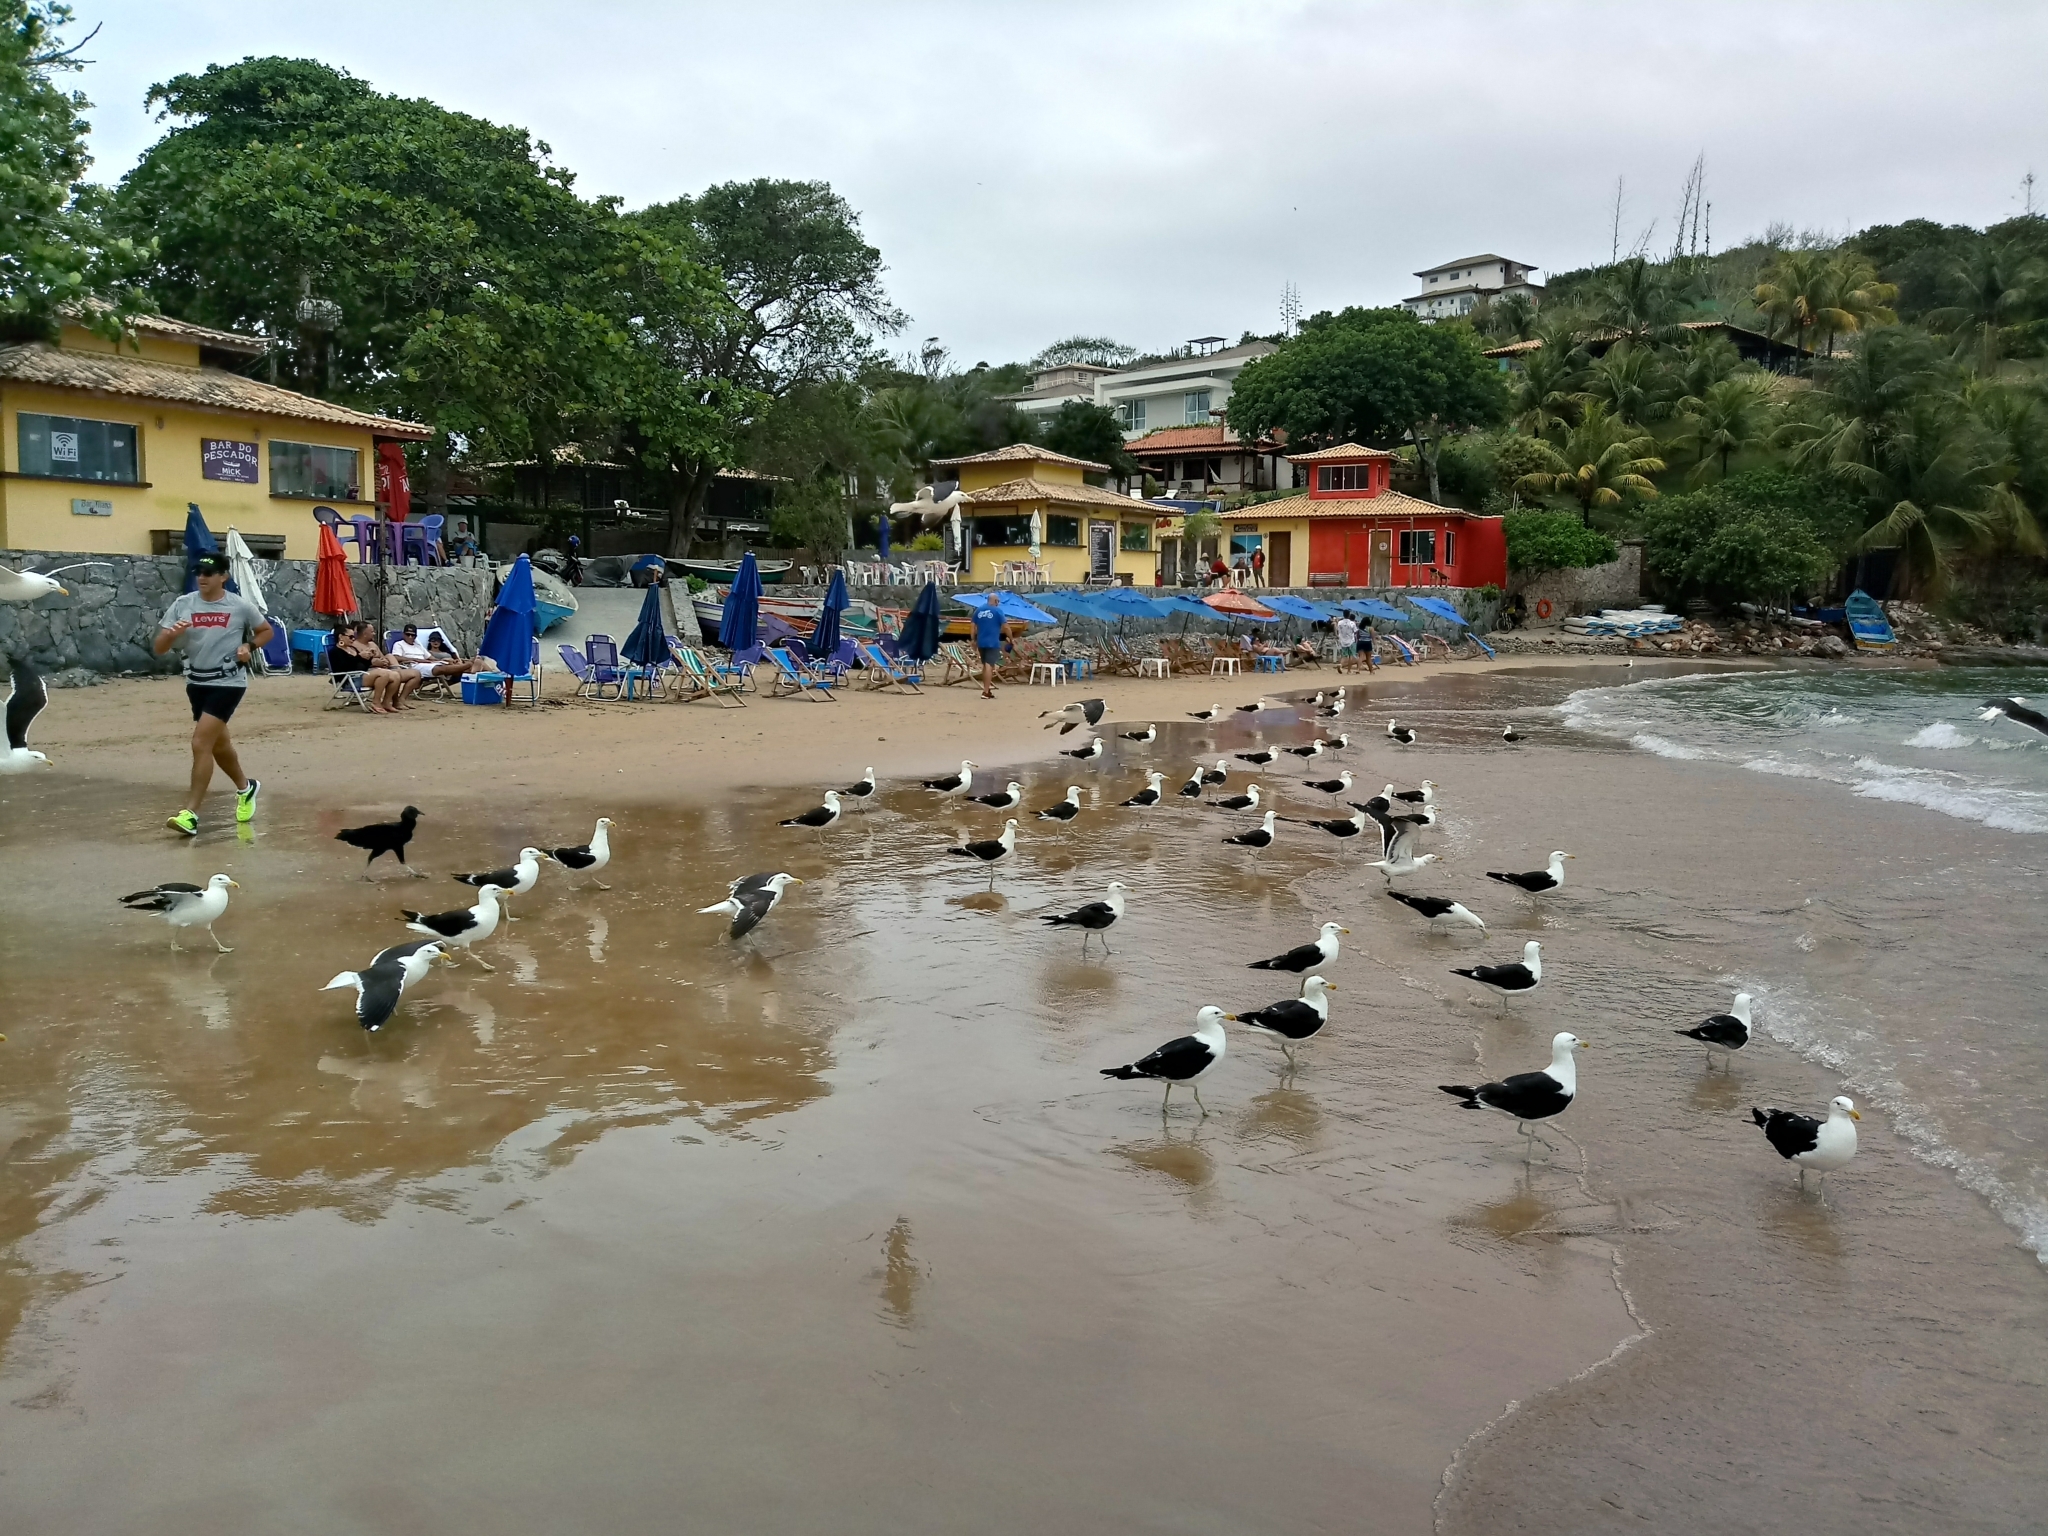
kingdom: Animalia
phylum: Chordata
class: Aves
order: Charadriiformes
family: Laridae
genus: Larus
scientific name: Larus dominicanus
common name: Kelp gull
